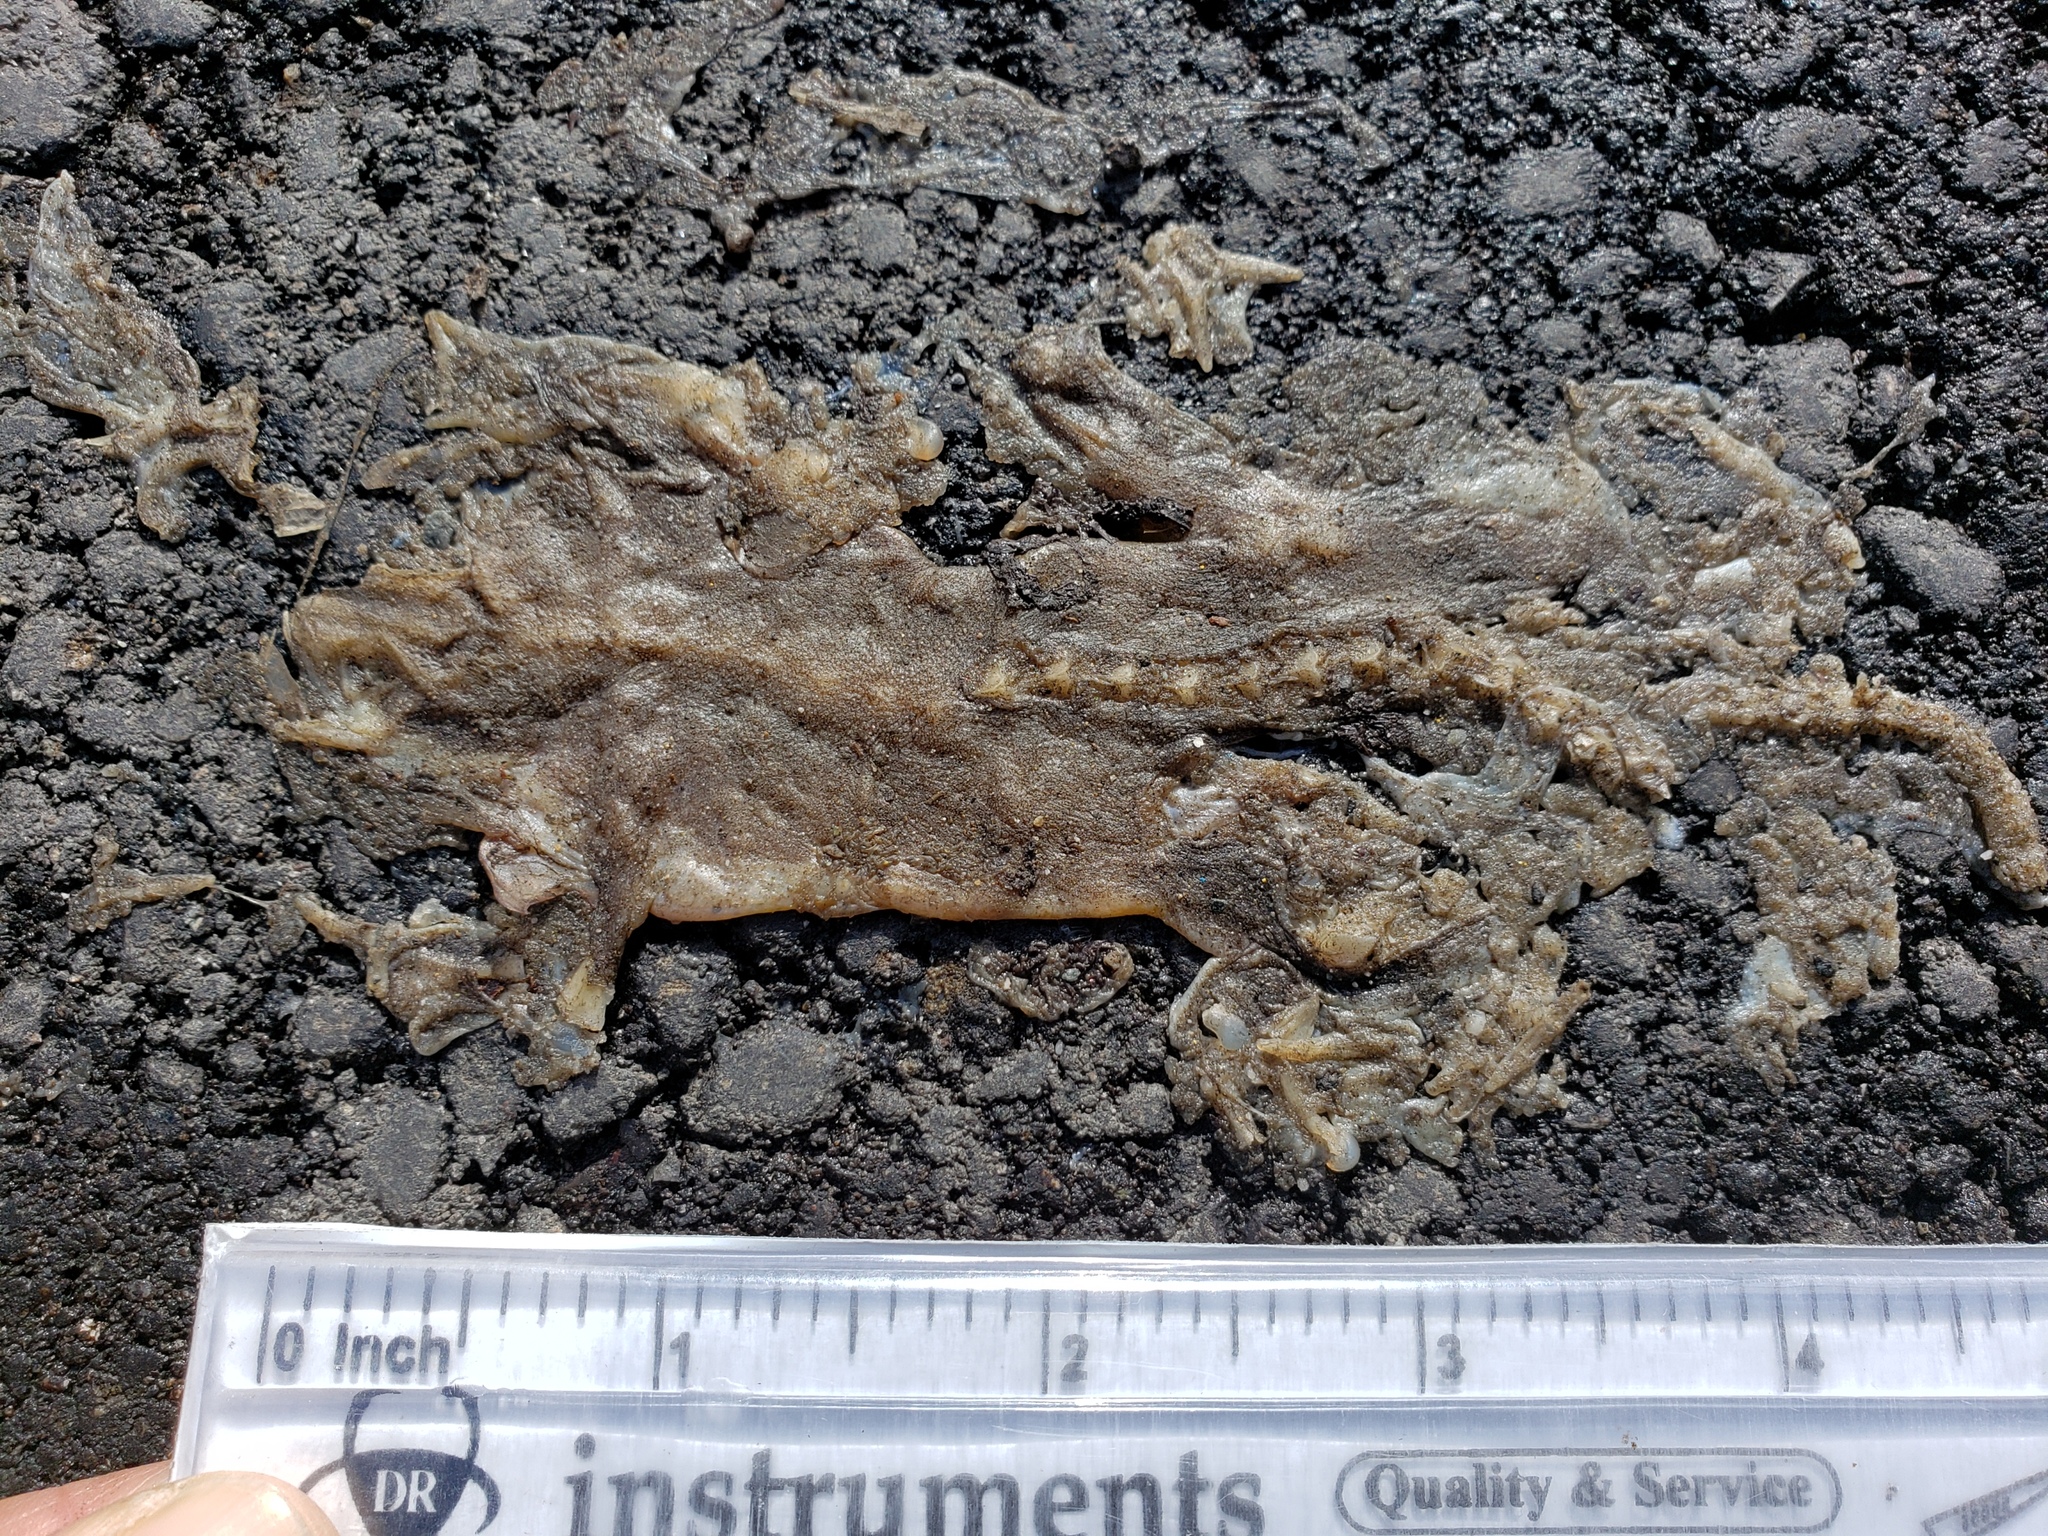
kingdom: Animalia
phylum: Chordata
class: Amphibia
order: Caudata
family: Salamandridae
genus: Taricha
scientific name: Taricha
